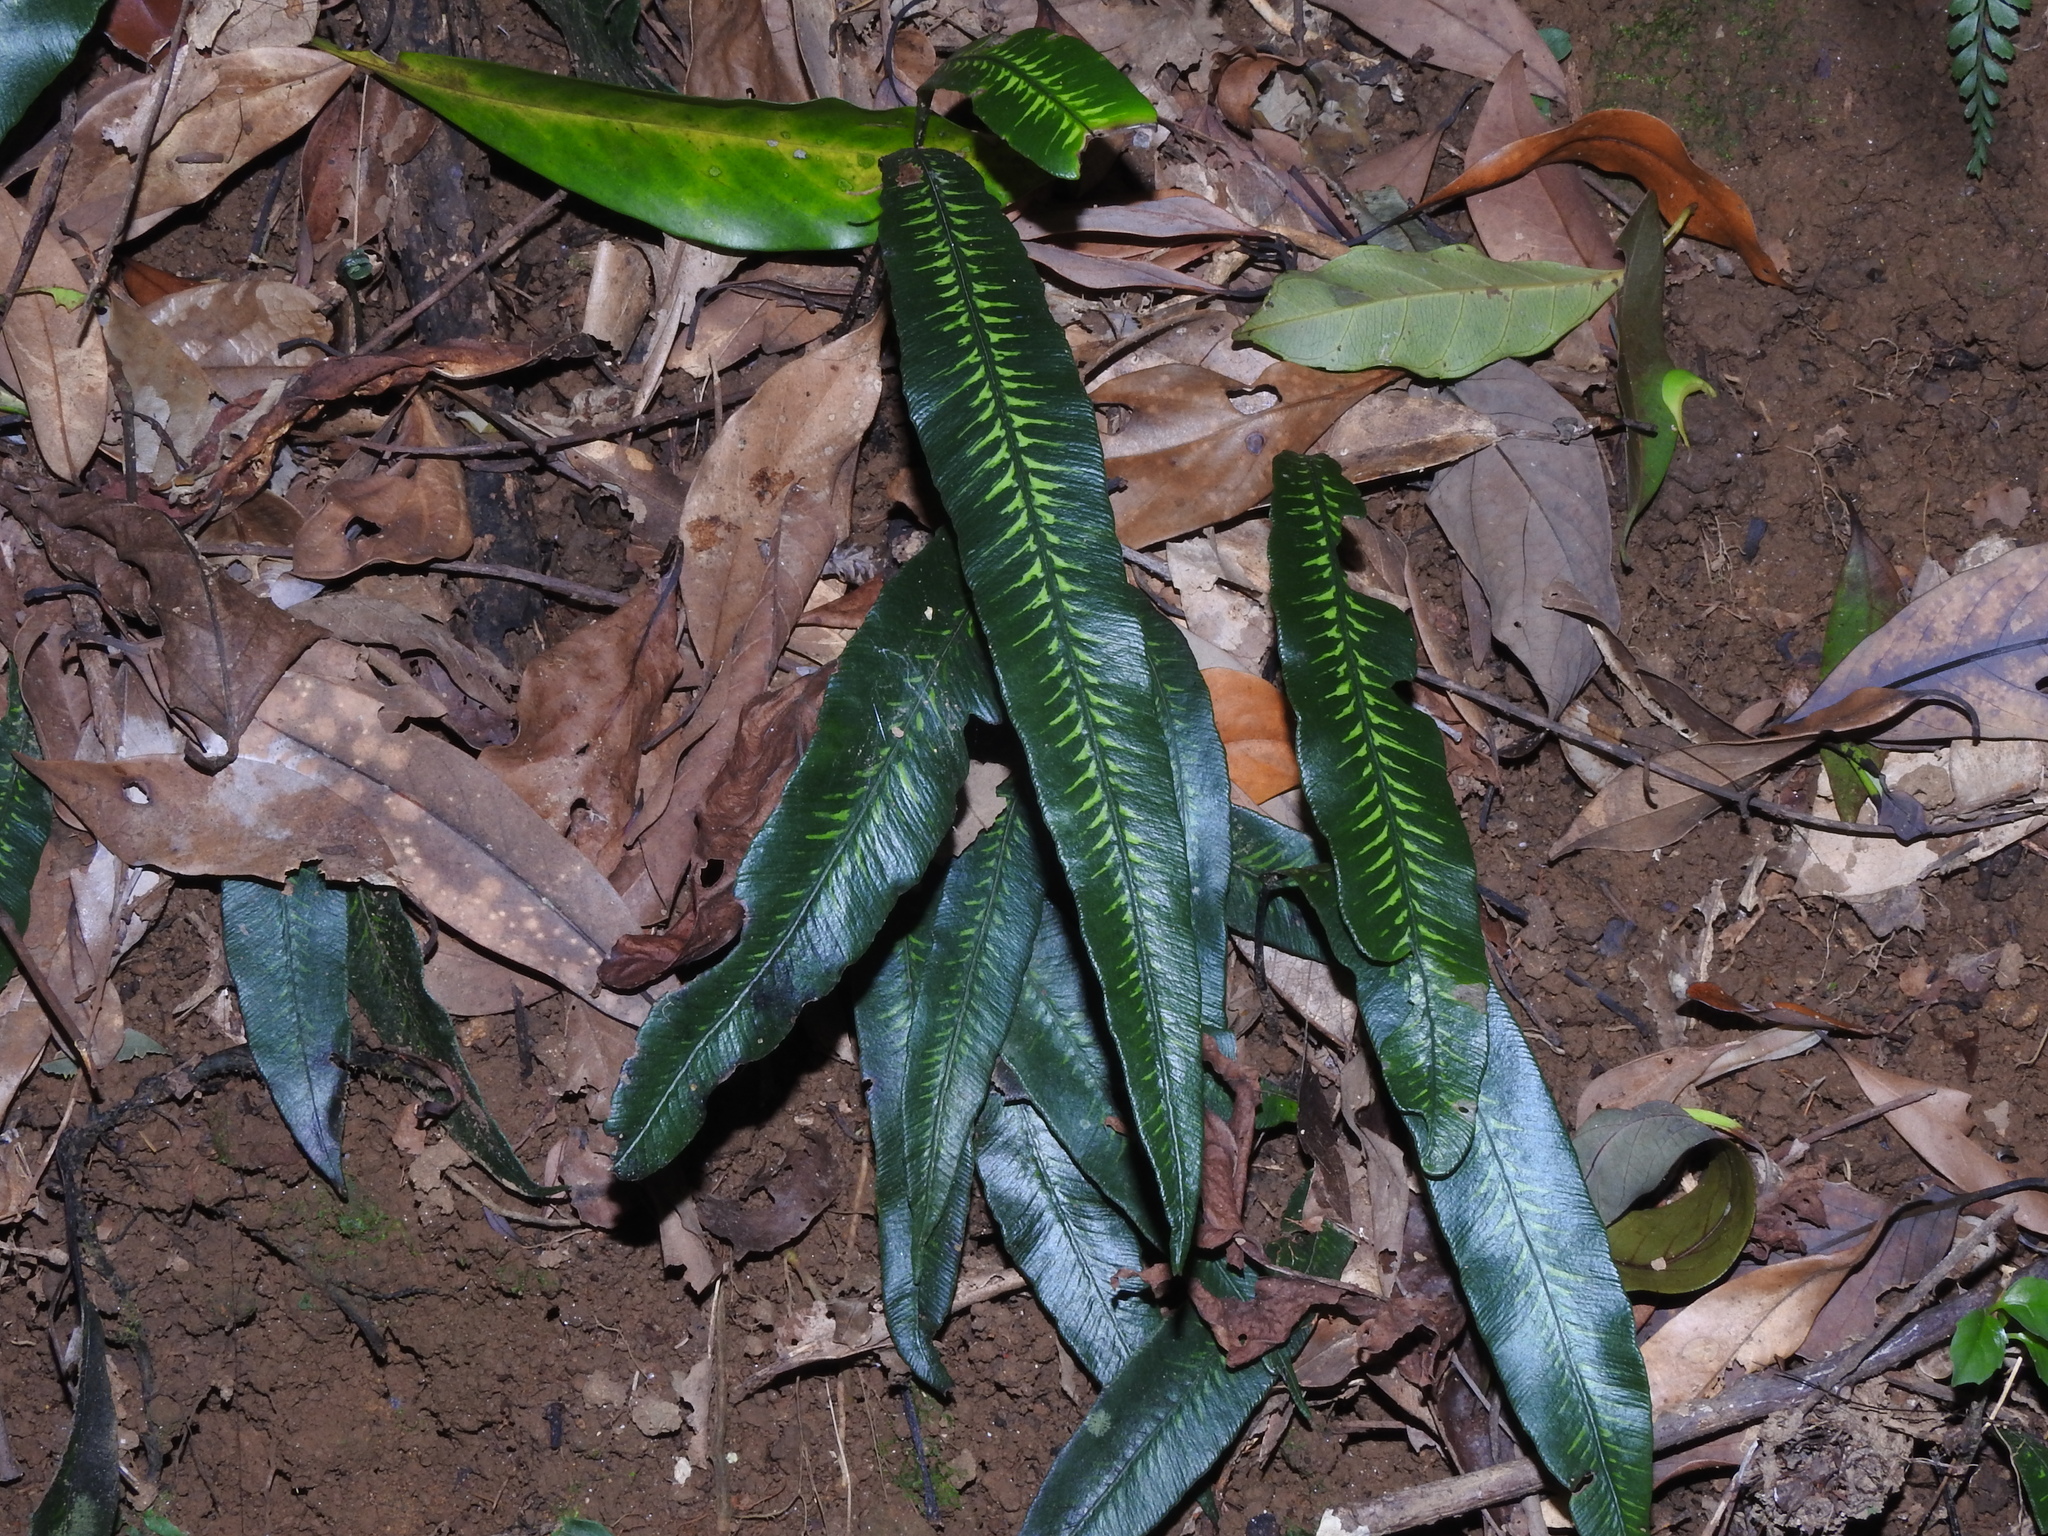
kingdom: Plantae
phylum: Tracheophyta
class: Polypodiopsida
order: Polypodiales
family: Athyriaceae
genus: Deparia
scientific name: Deparia lancea
